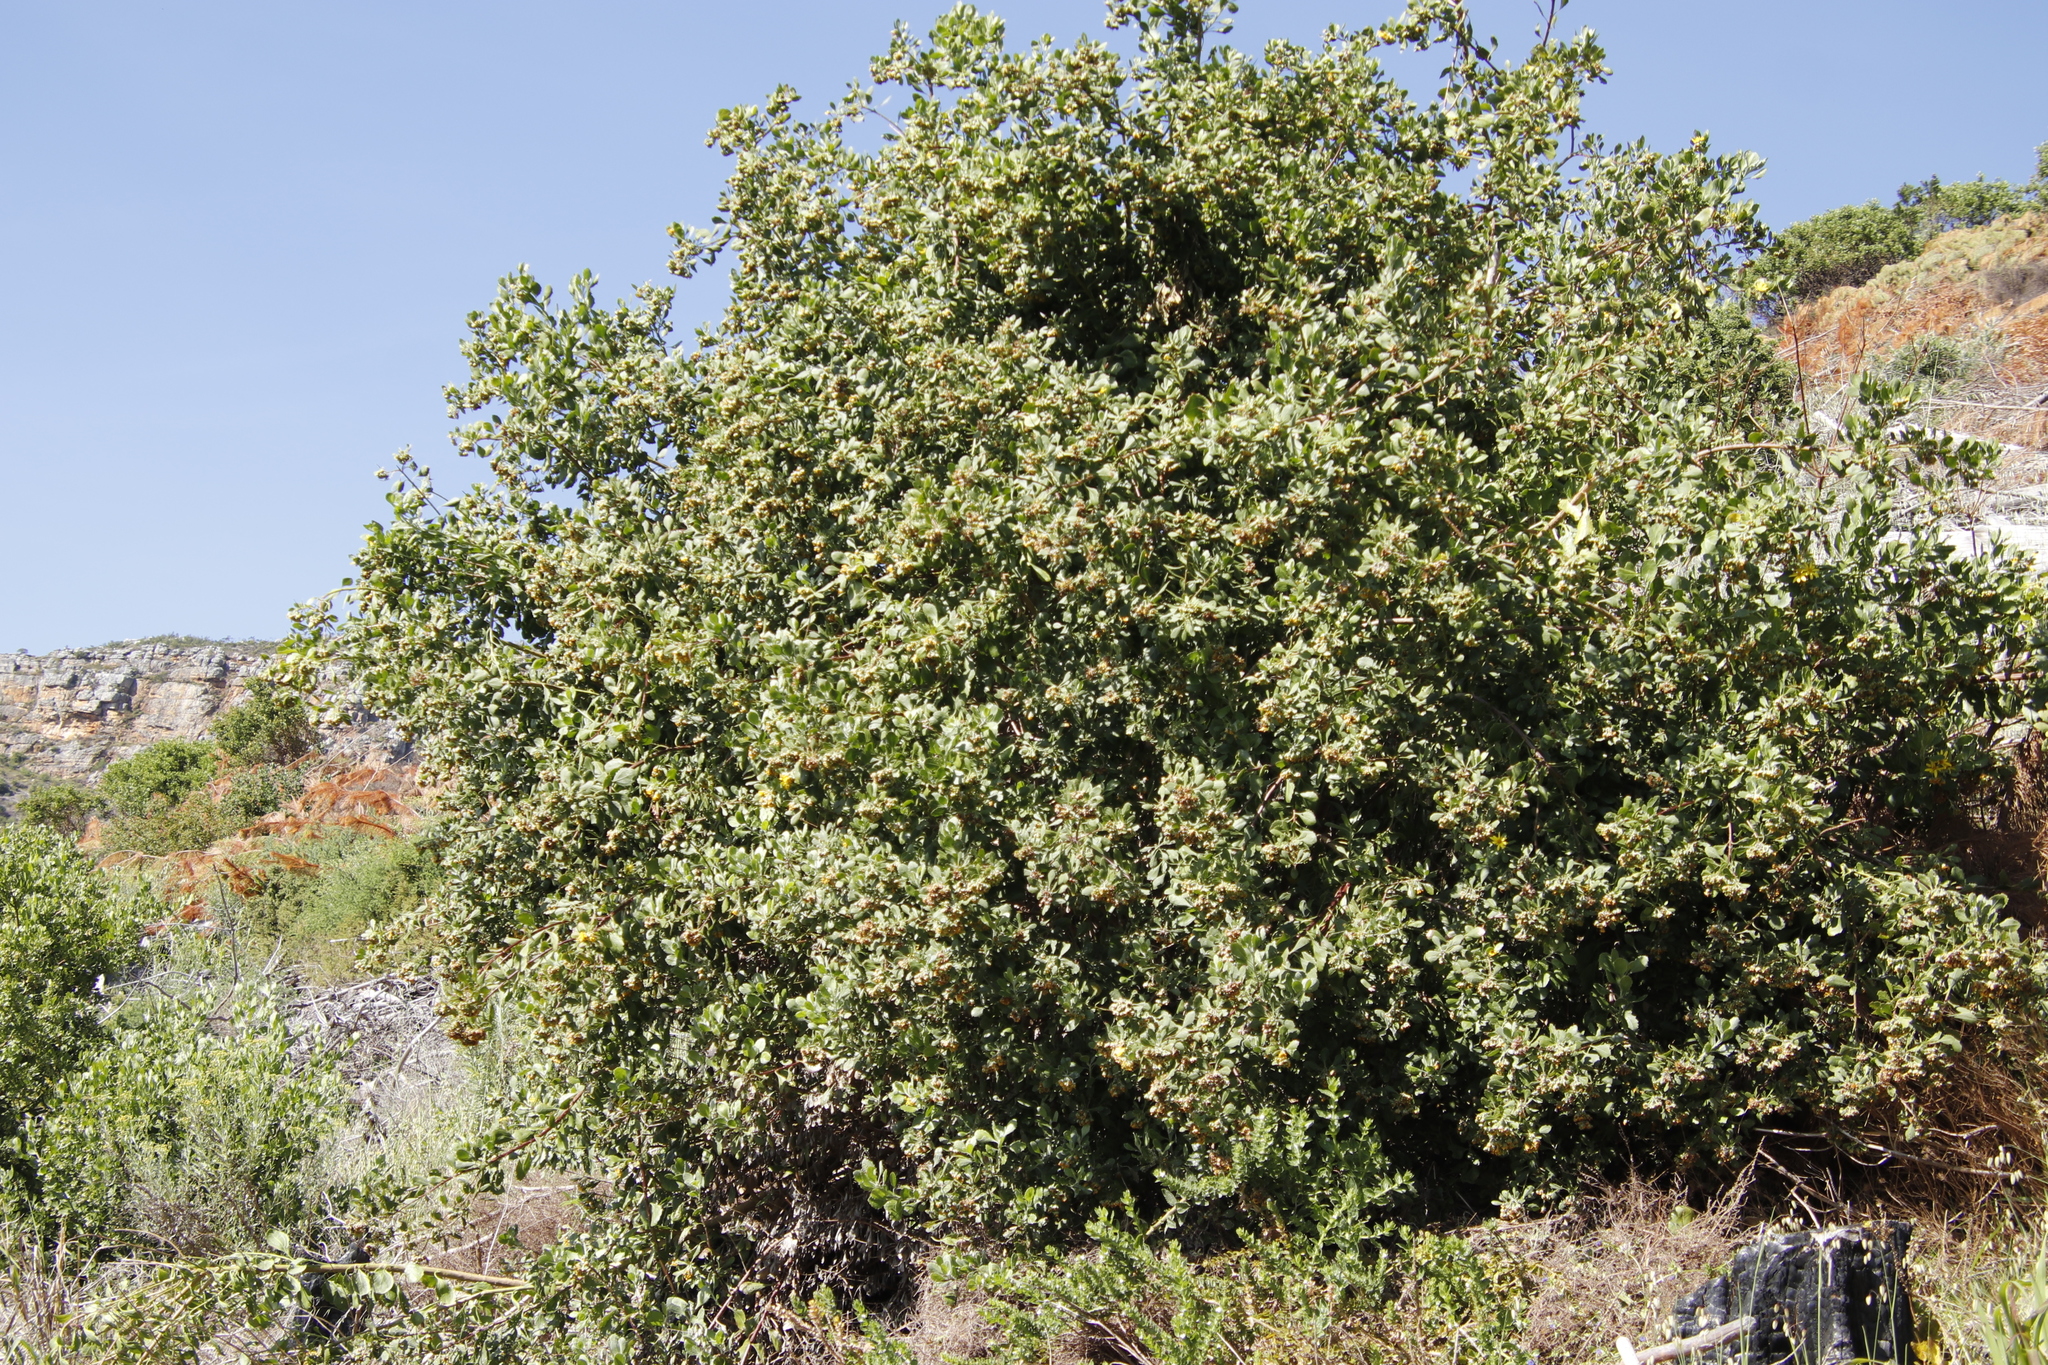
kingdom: Plantae
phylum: Tracheophyta
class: Magnoliopsida
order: Asterales
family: Asteraceae
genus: Osteospermum
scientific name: Osteospermum moniliferum
